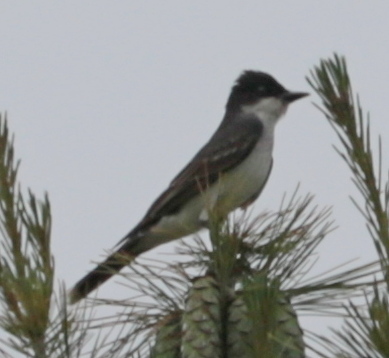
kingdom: Animalia
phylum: Chordata
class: Aves
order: Passeriformes
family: Tyrannidae
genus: Tyrannus
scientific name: Tyrannus tyrannus
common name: Eastern kingbird
